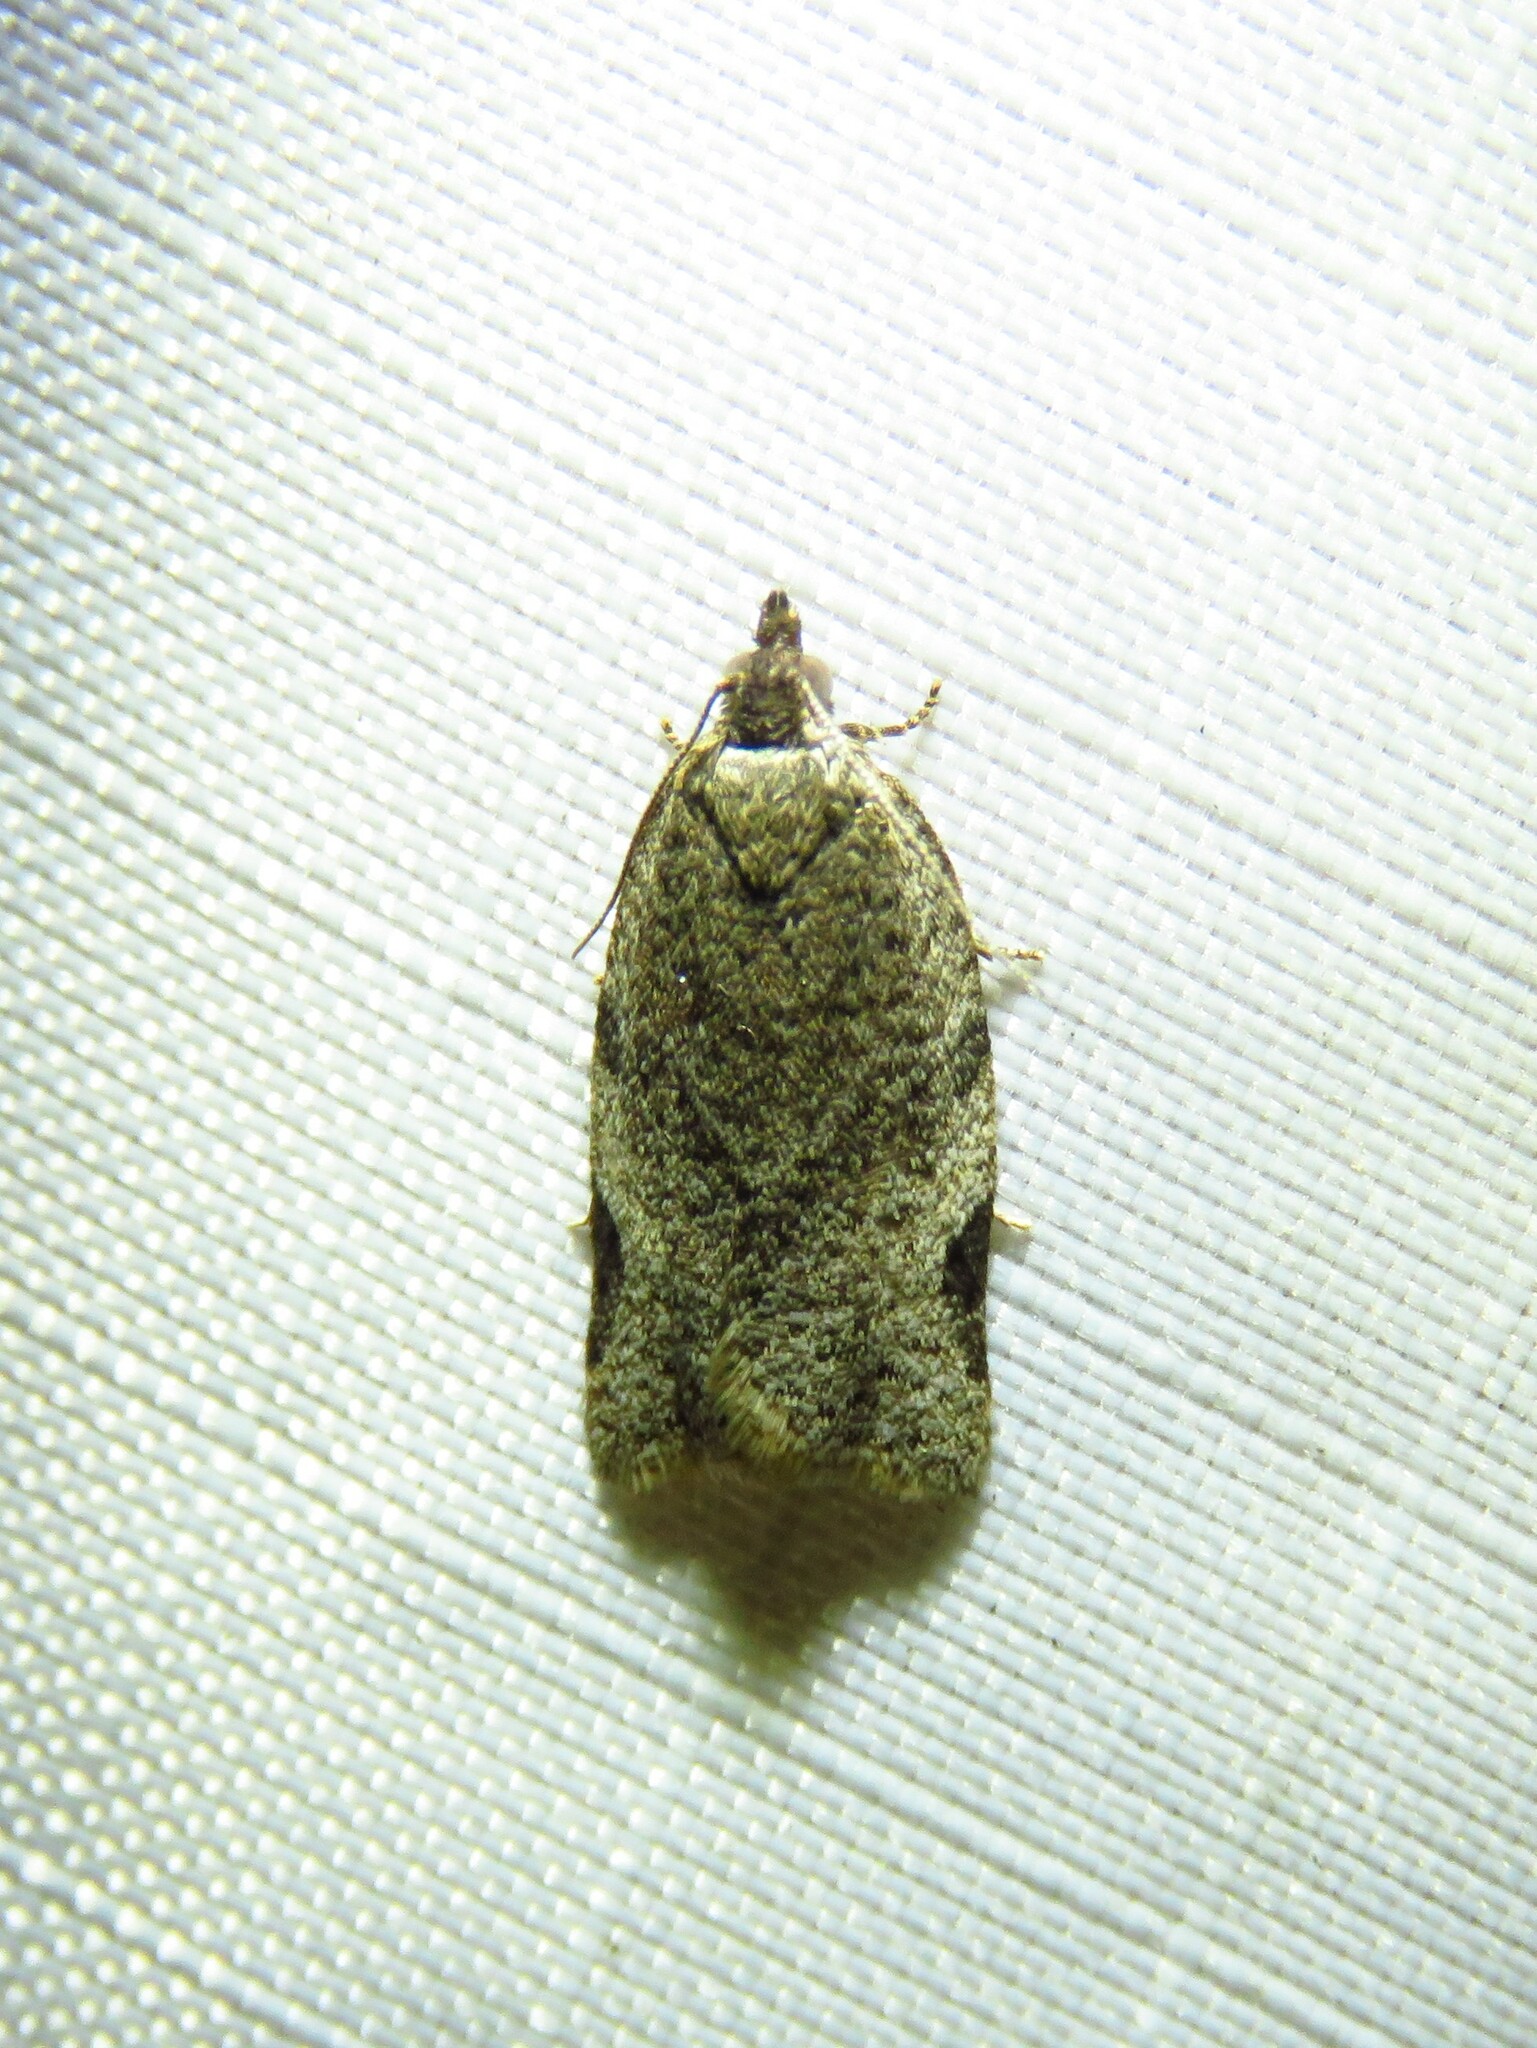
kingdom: Animalia
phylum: Arthropoda
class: Insecta
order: Lepidoptera
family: Tortricidae
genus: Clepsis
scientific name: Clepsis virescana
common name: Greenish apple moth
